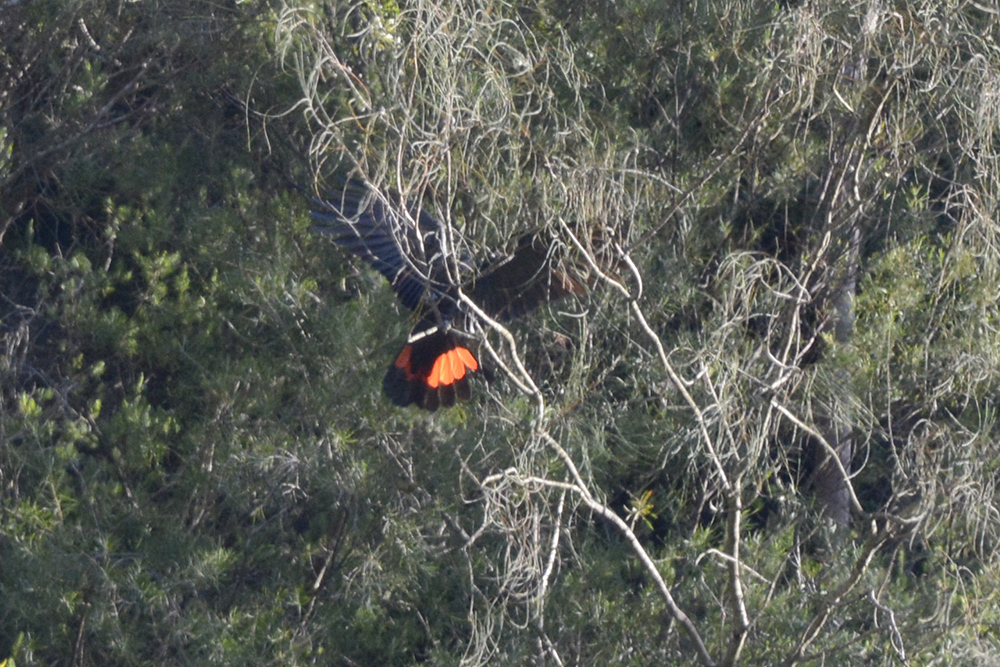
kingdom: Animalia
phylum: Chordata
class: Aves
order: Psittaciformes
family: Psittacidae
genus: Calyptorhynchus
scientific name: Calyptorhynchus lathami
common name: Glossy black cockatoo
